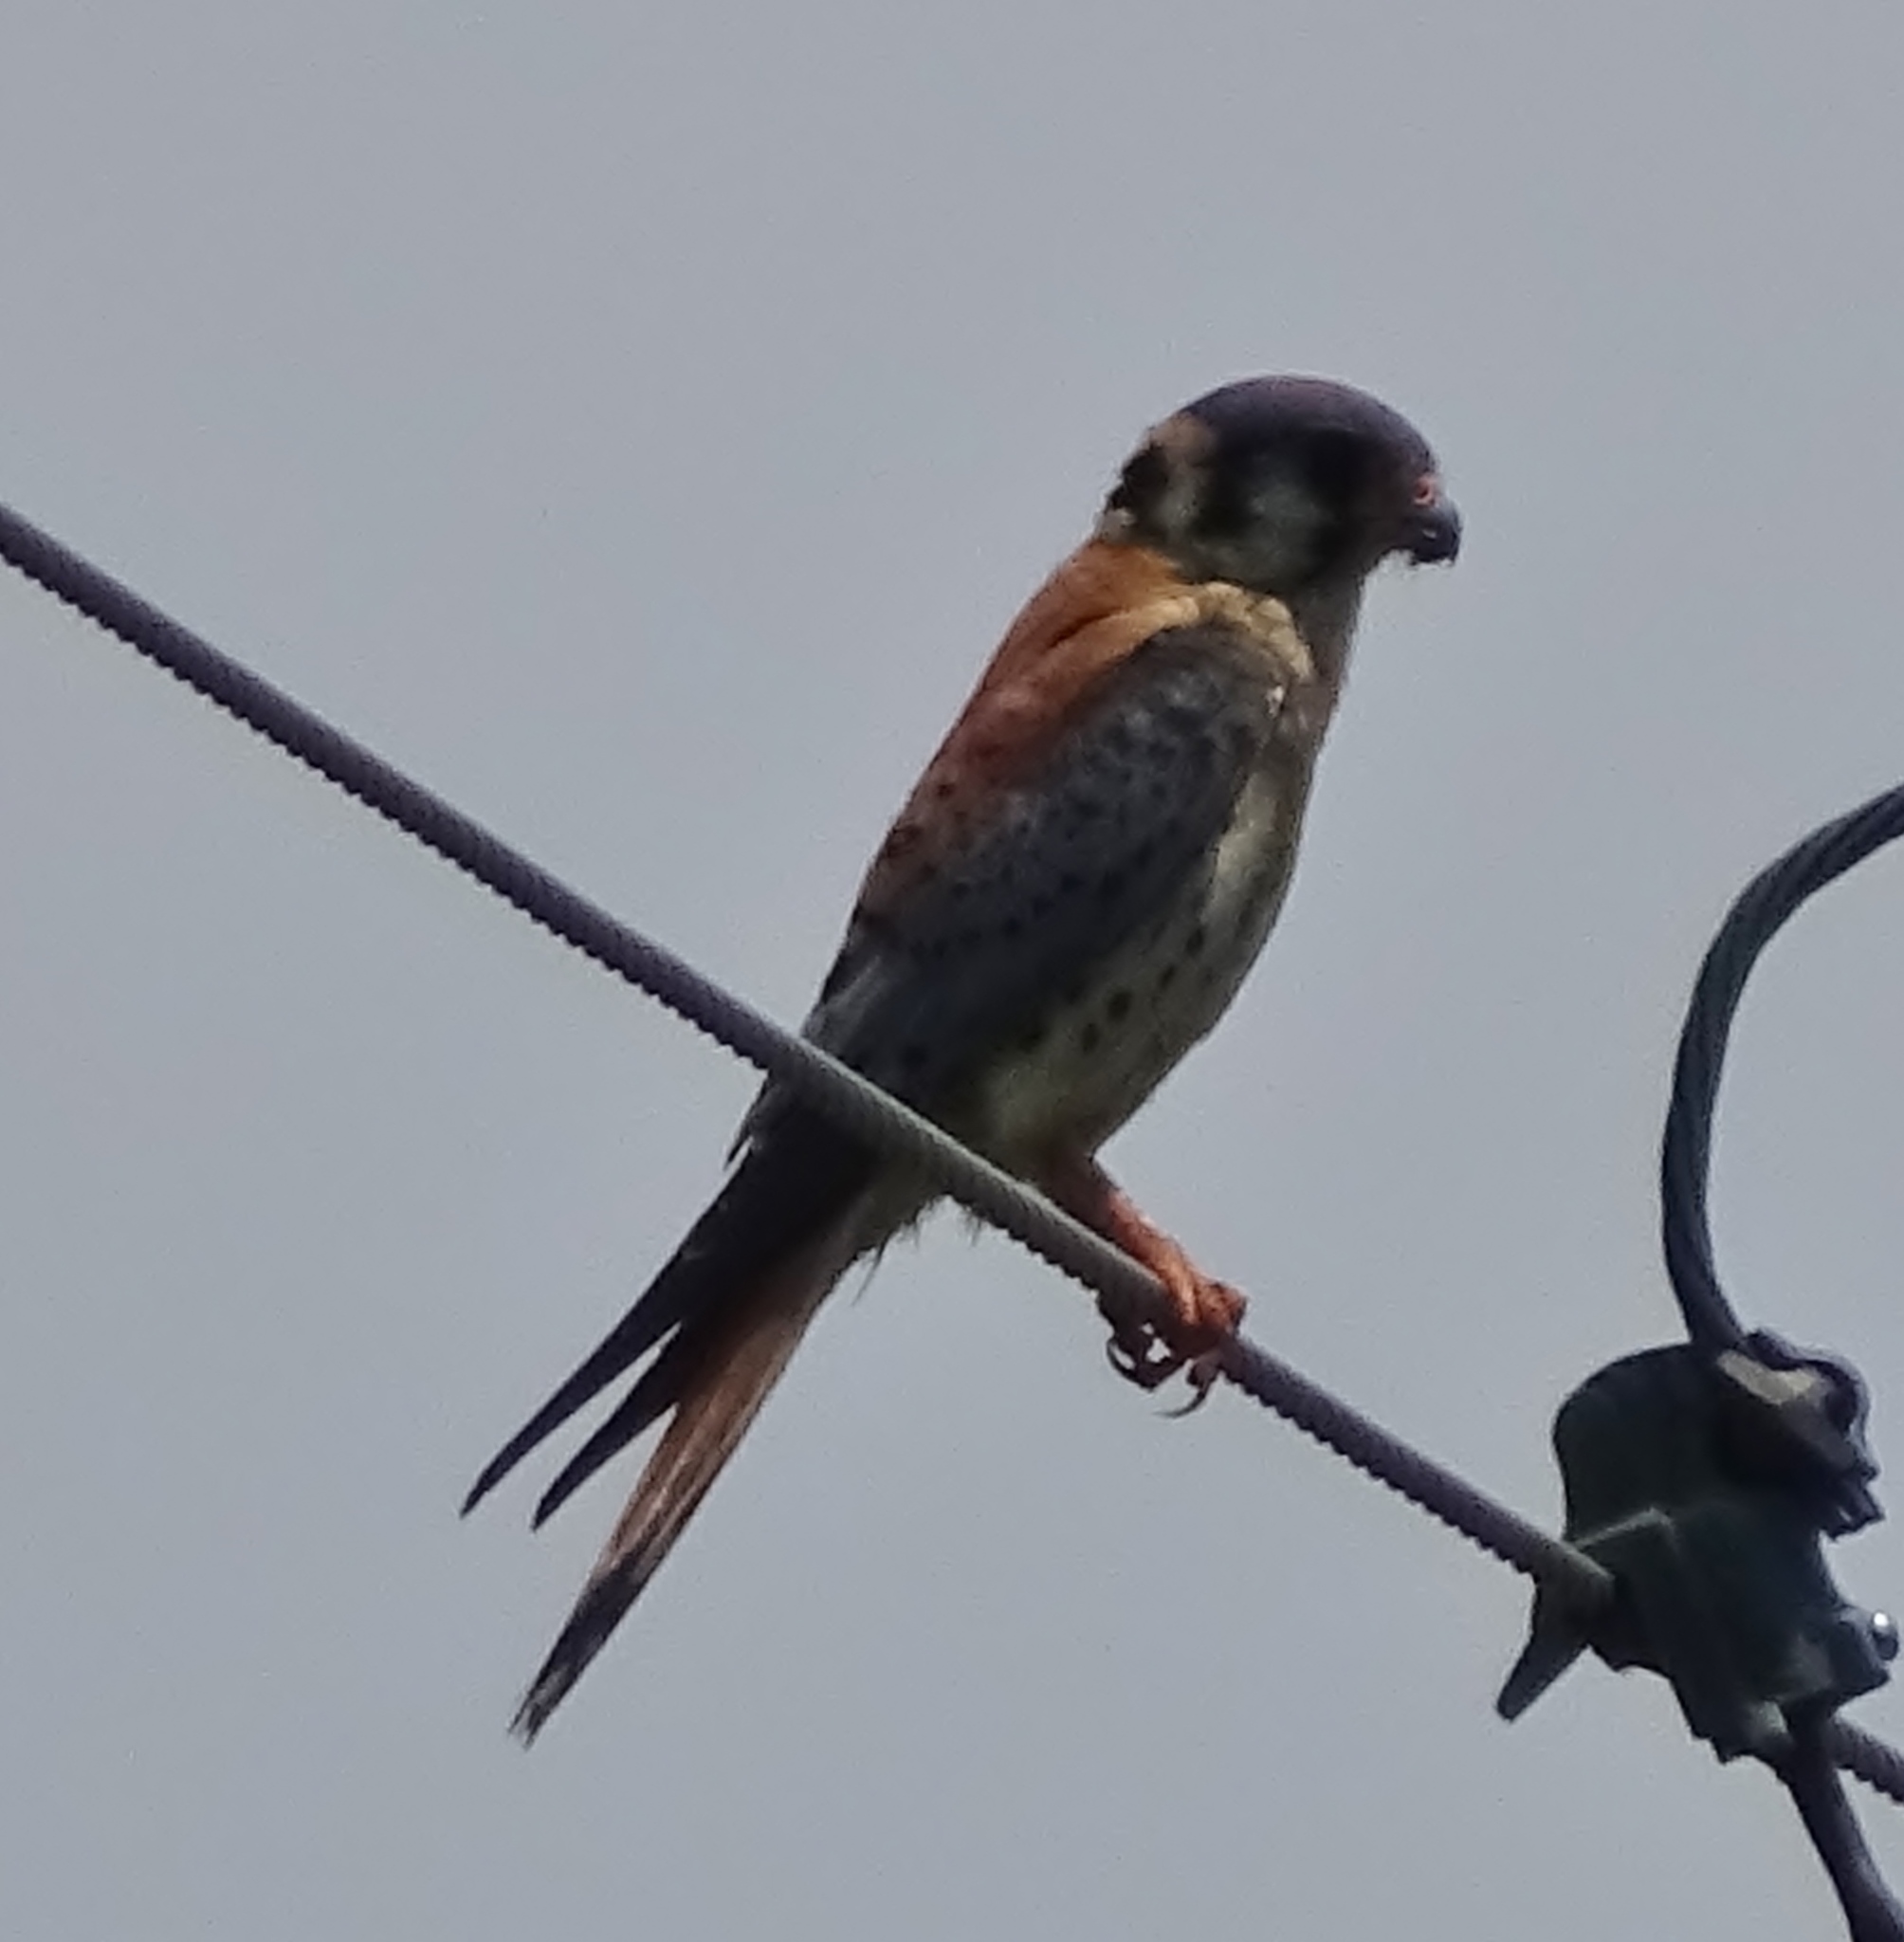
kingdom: Animalia
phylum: Chordata
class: Aves
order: Falconiformes
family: Falconidae
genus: Falco
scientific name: Falco sparverius
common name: American kestrel
